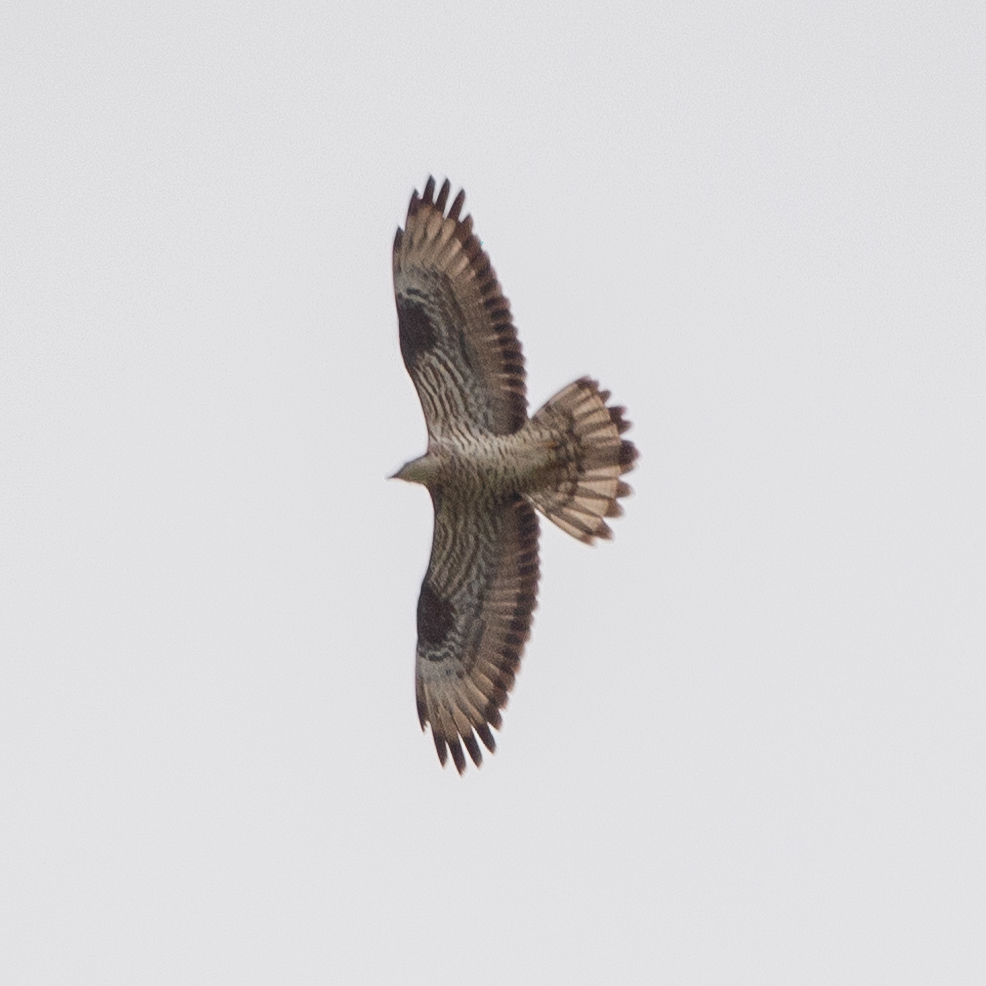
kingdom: Animalia
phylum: Chordata
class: Aves
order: Accipitriformes
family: Accipitridae
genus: Pernis
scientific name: Pernis apivorus
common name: European honey buzzard
